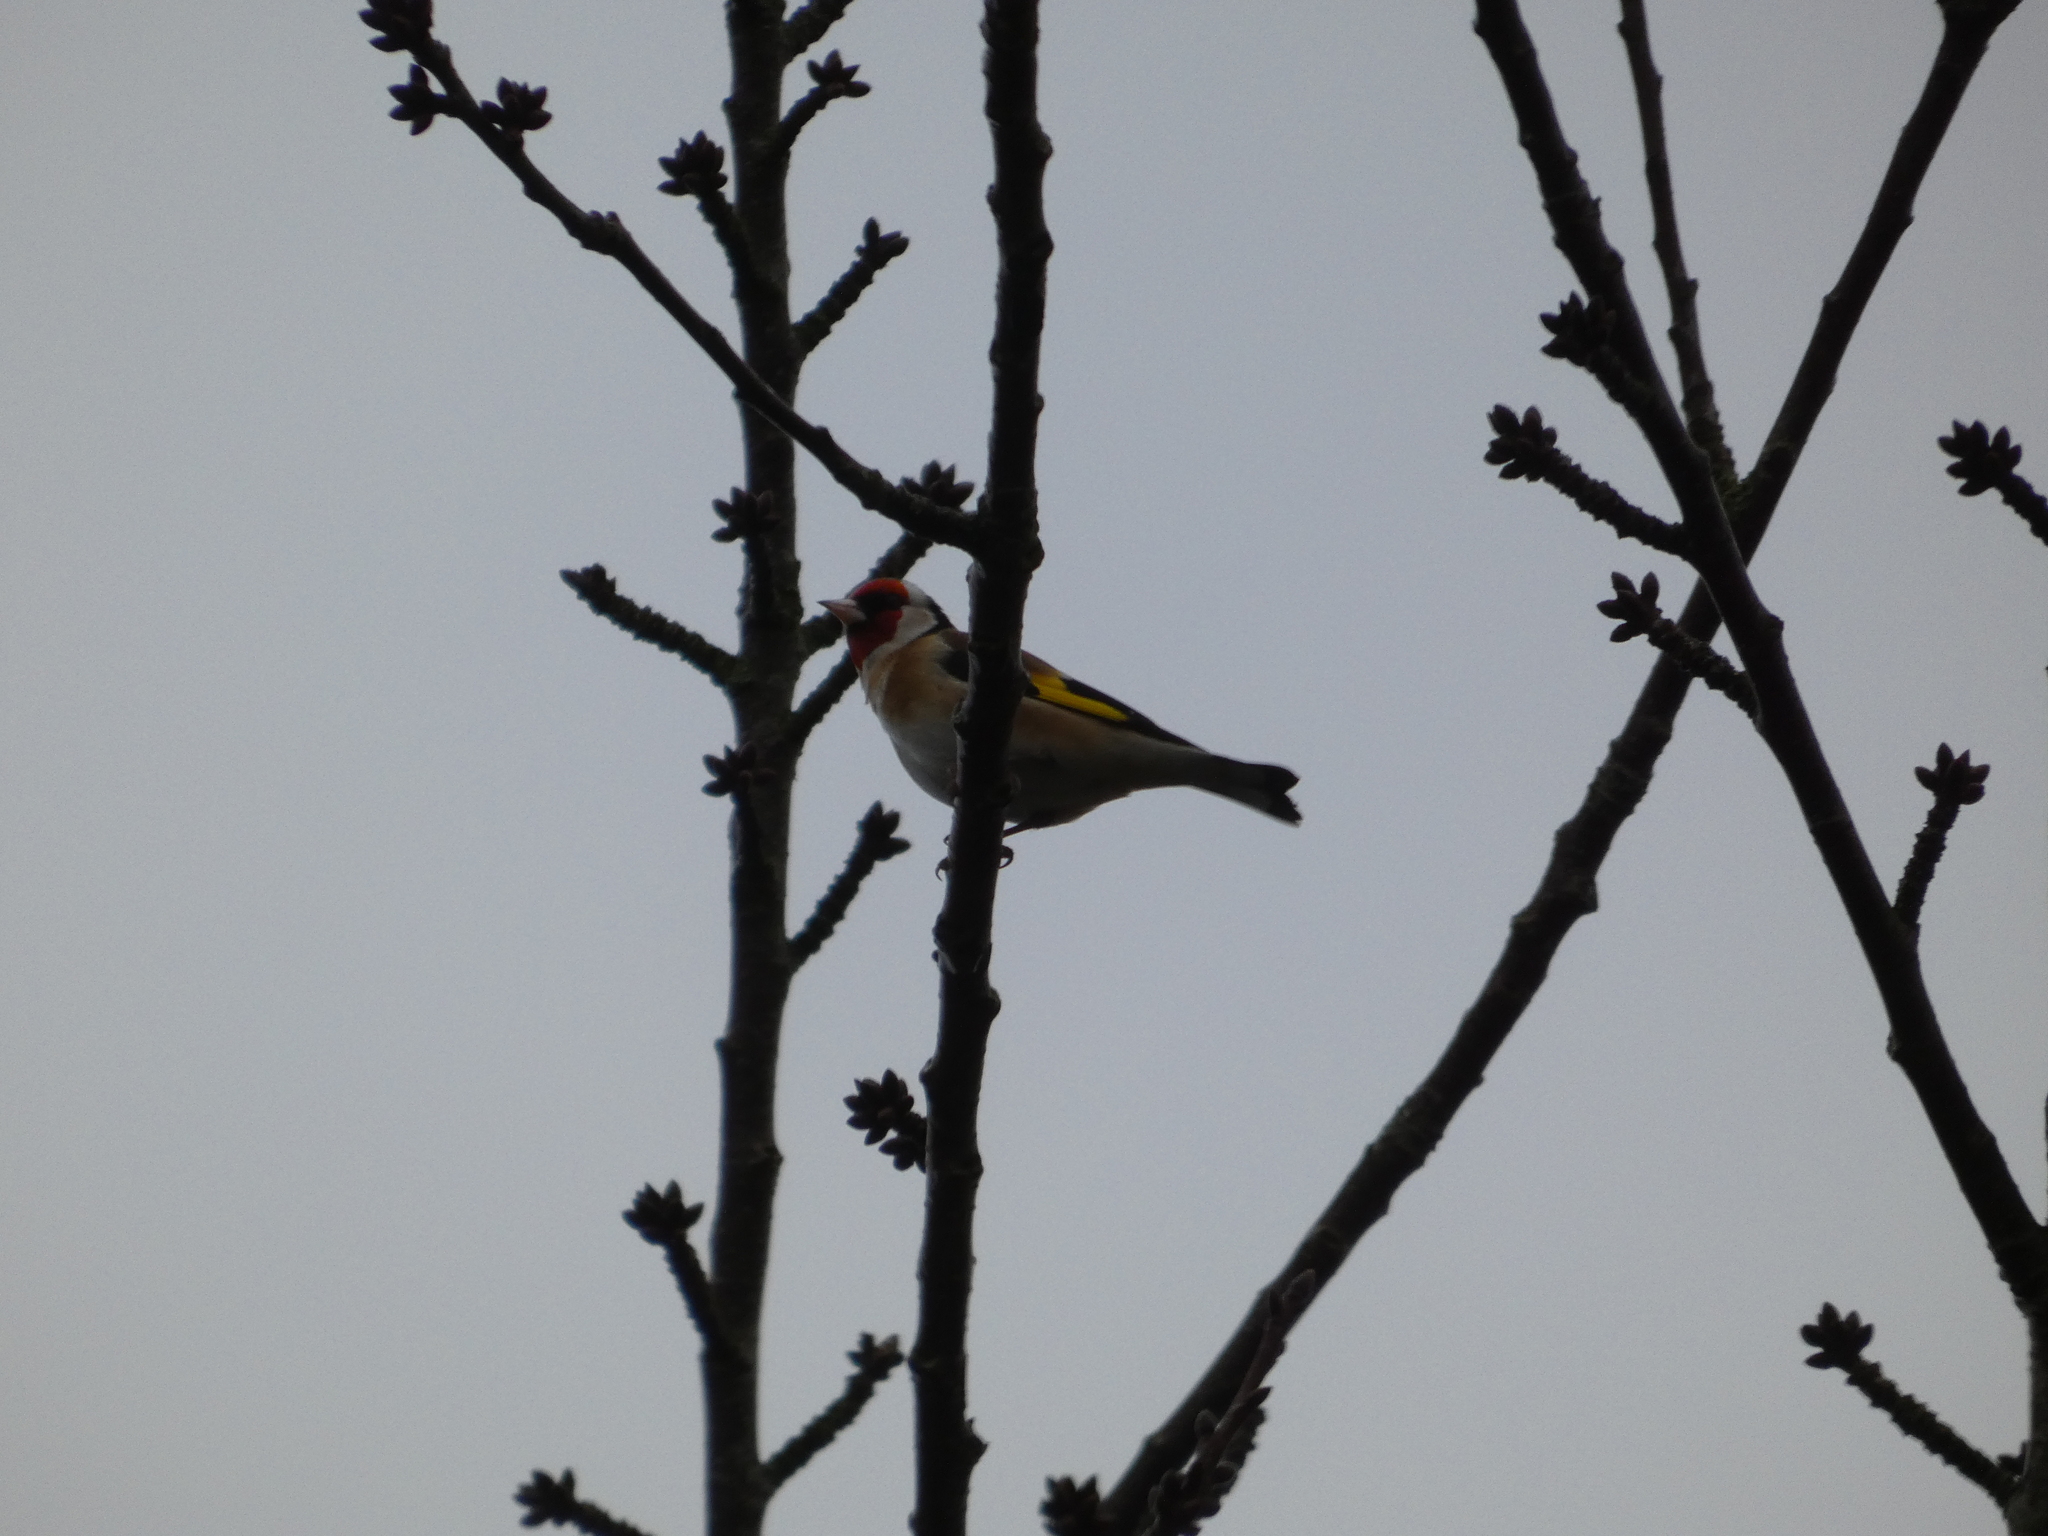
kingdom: Animalia
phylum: Chordata
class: Aves
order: Passeriformes
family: Fringillidae
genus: Carduelis
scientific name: Carduelis carduelis
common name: European goldfinch
